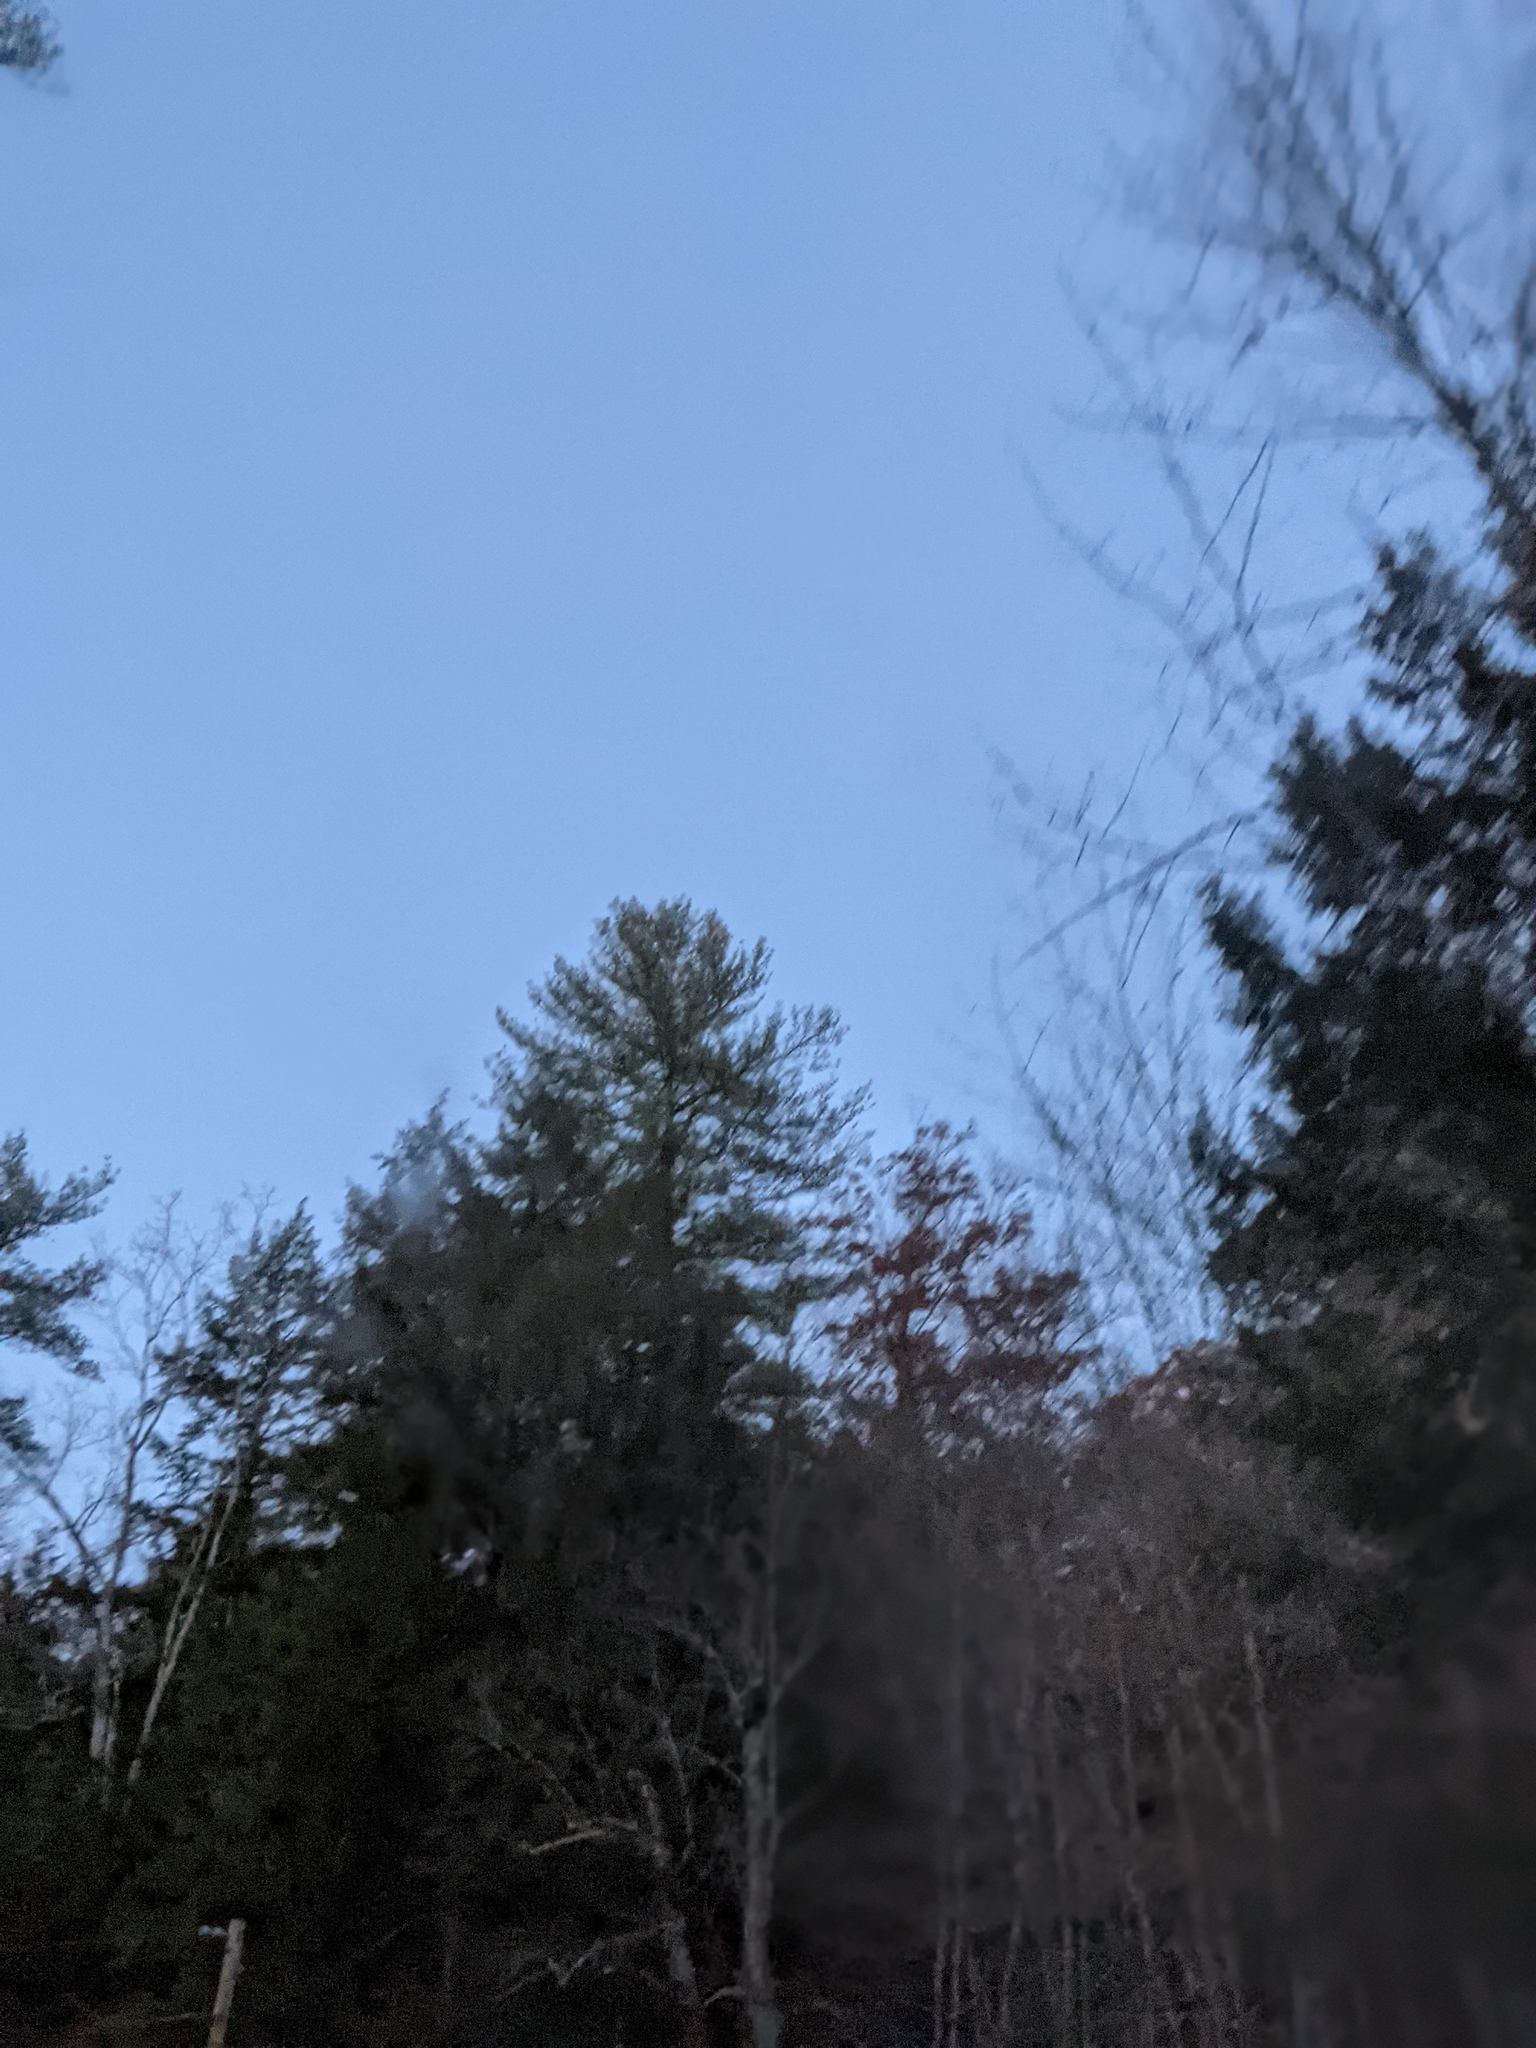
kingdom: Plantae
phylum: Tracheophyta
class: Pinopsida
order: Pinales
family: Pinaceae
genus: Pinus
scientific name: Pinus strobus
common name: Weymouth pine
